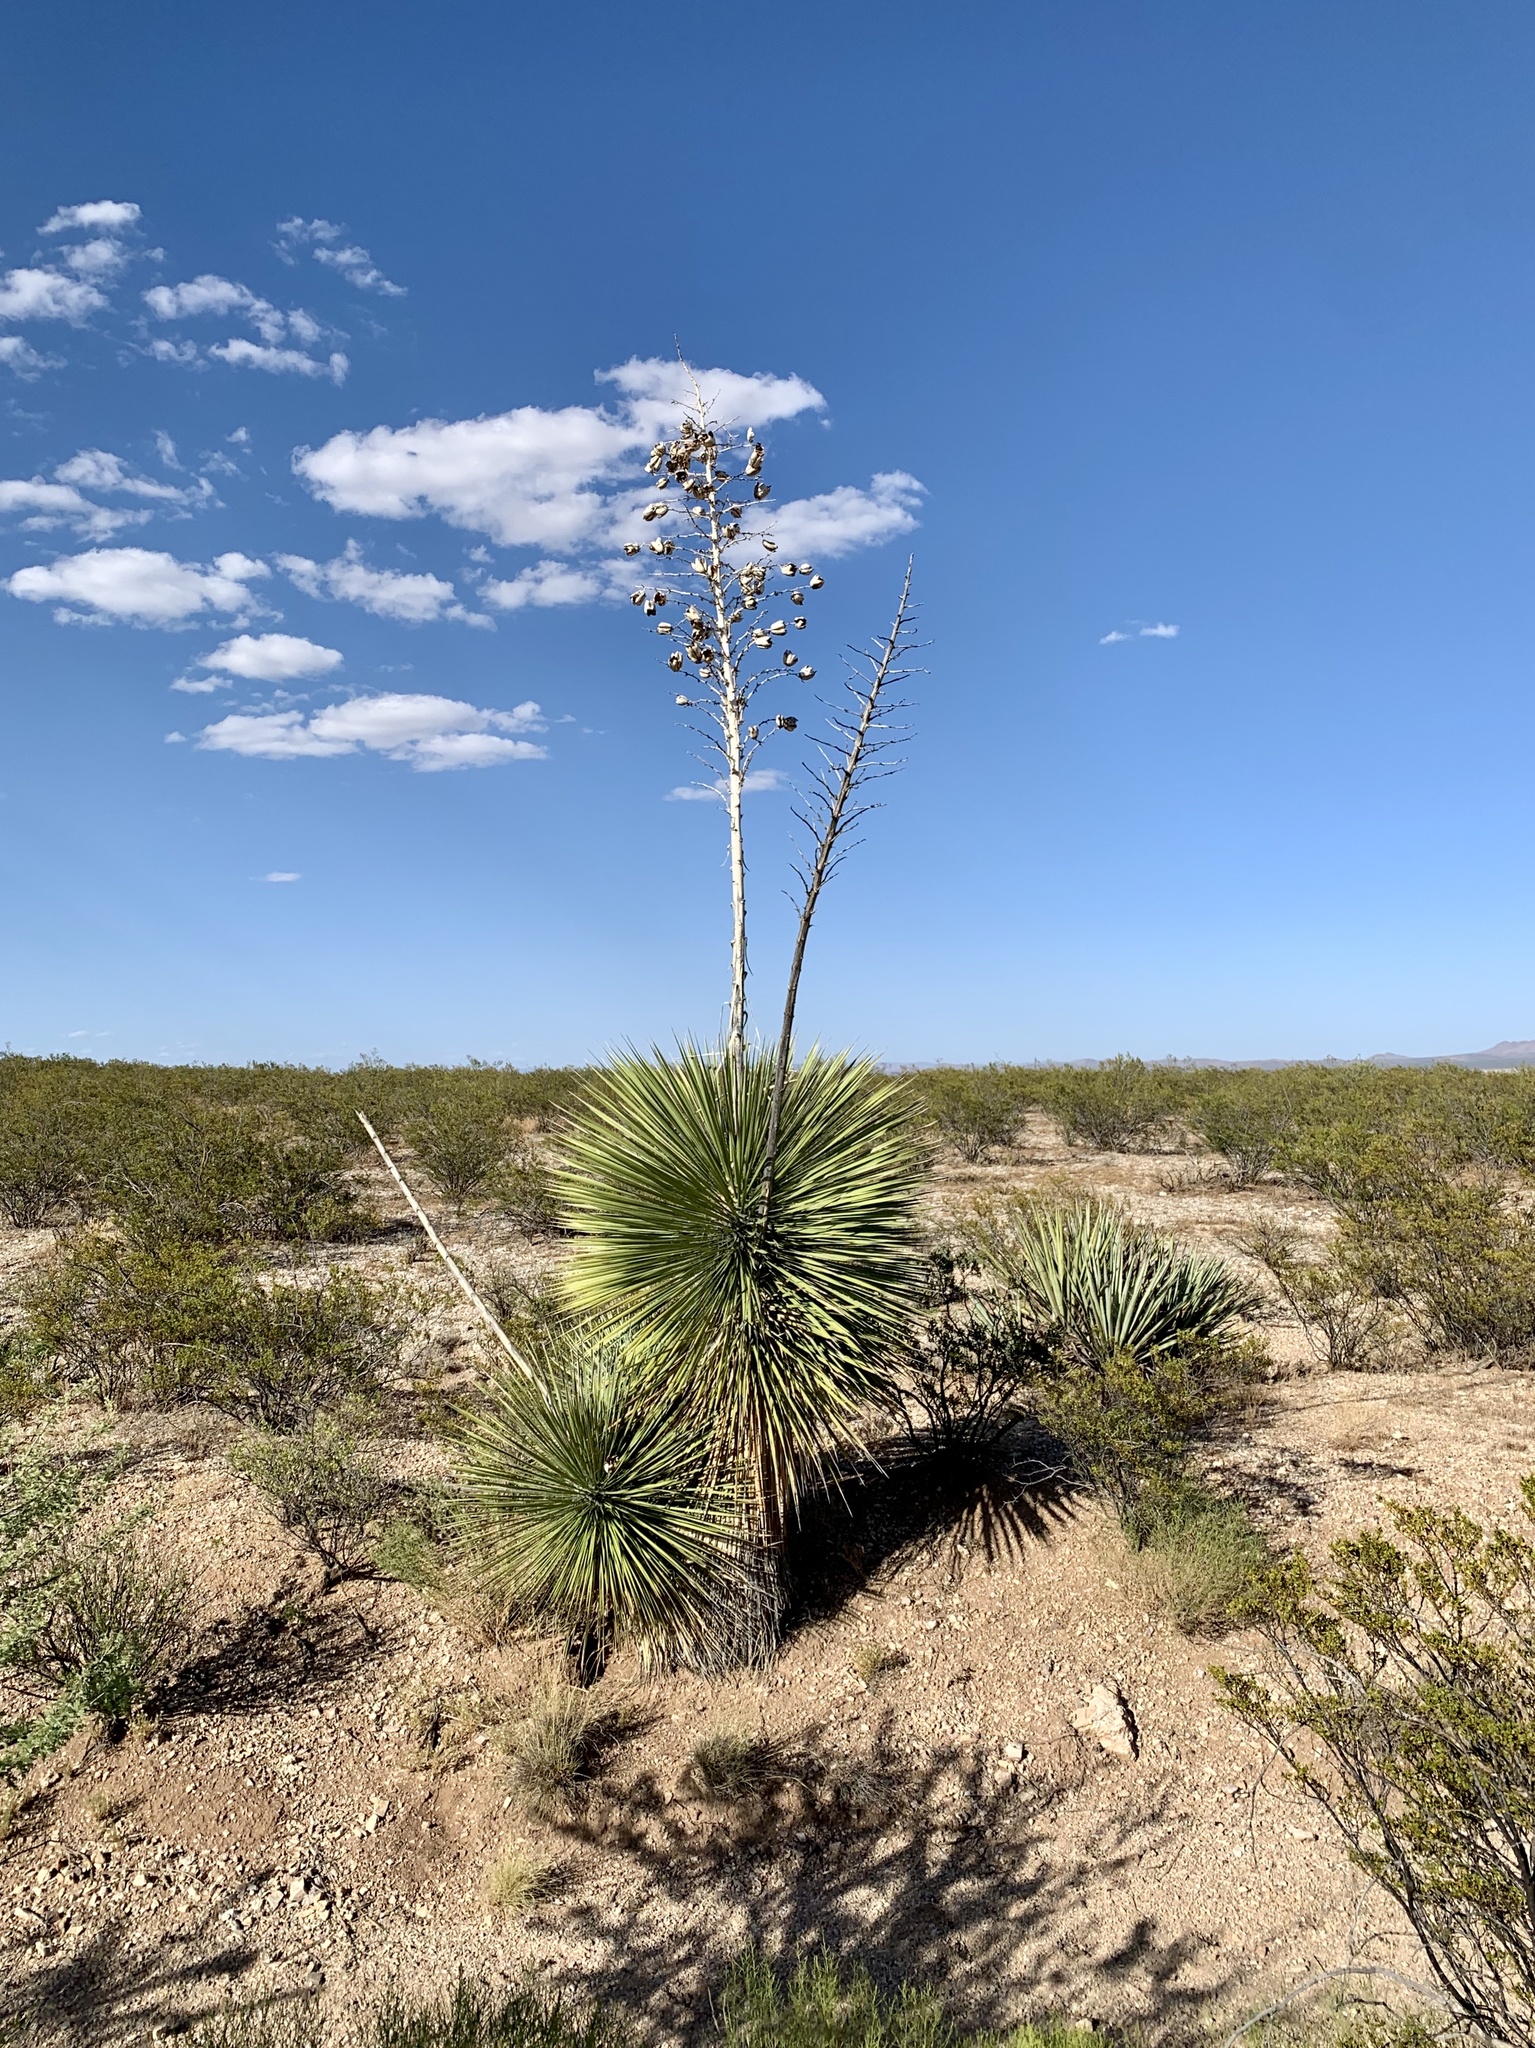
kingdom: Plantae
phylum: Tracheophyta
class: Liliopsida
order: Asparagales
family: Asparagaceae
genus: Yucca
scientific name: Yucca elata
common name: Palmella
